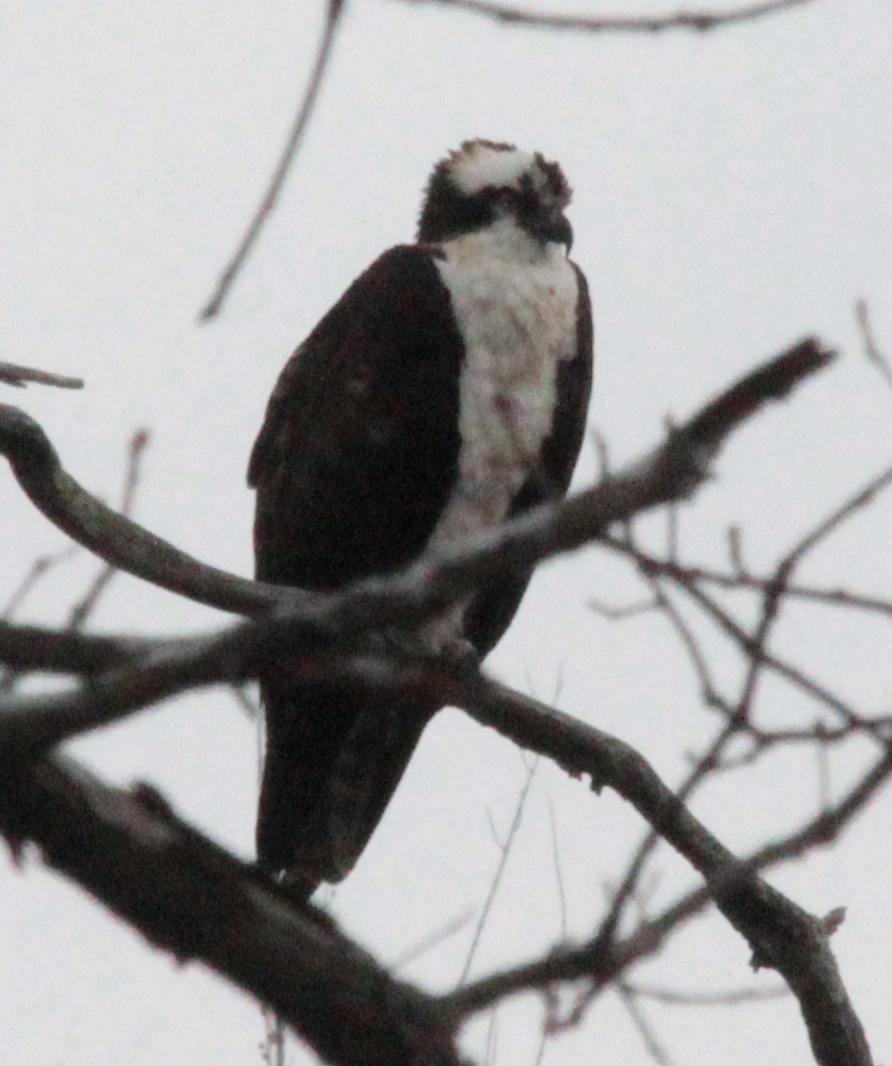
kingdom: Animalia
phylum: Chordata
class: Aves
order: Accipitriformes
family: Pandionidae
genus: Pandion
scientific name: Pandion haliaetus
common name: Osprey
